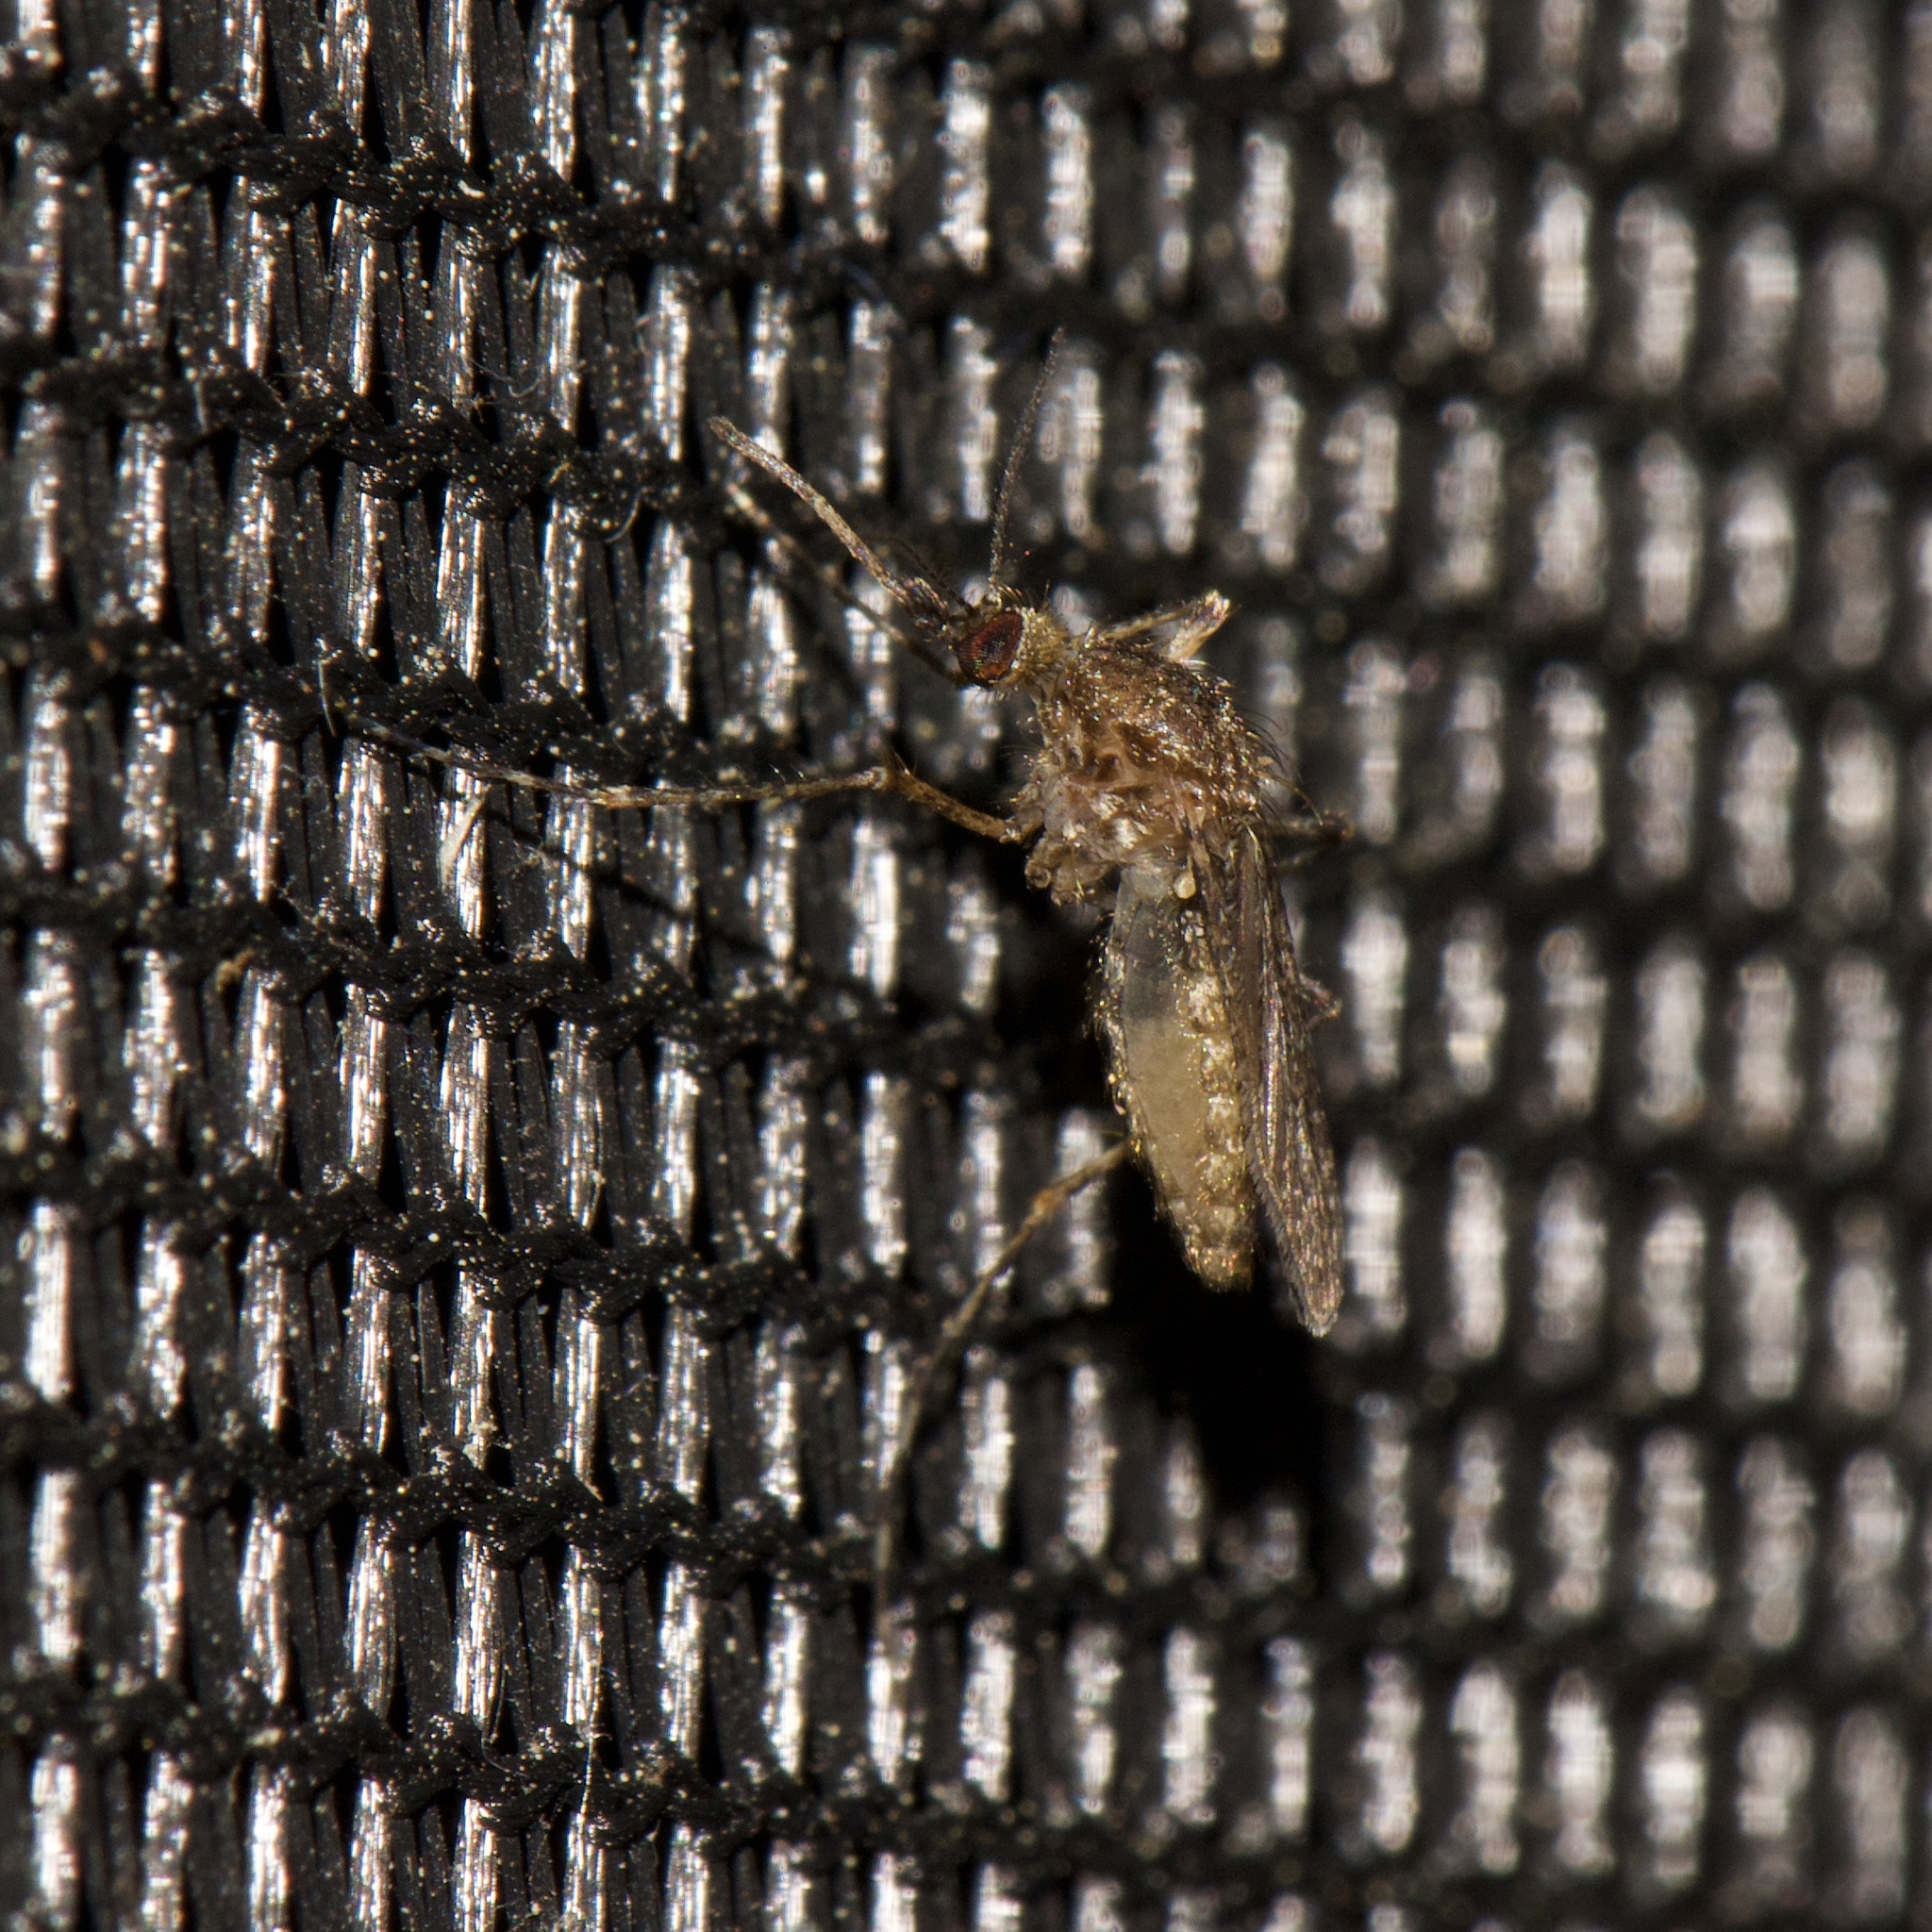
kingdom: Animalia
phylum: Arthropoda
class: Insecta
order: Diptera
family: Culicidae
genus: Coquillettidia
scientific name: Coquillettidia perturbans
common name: Cattail mosquito
